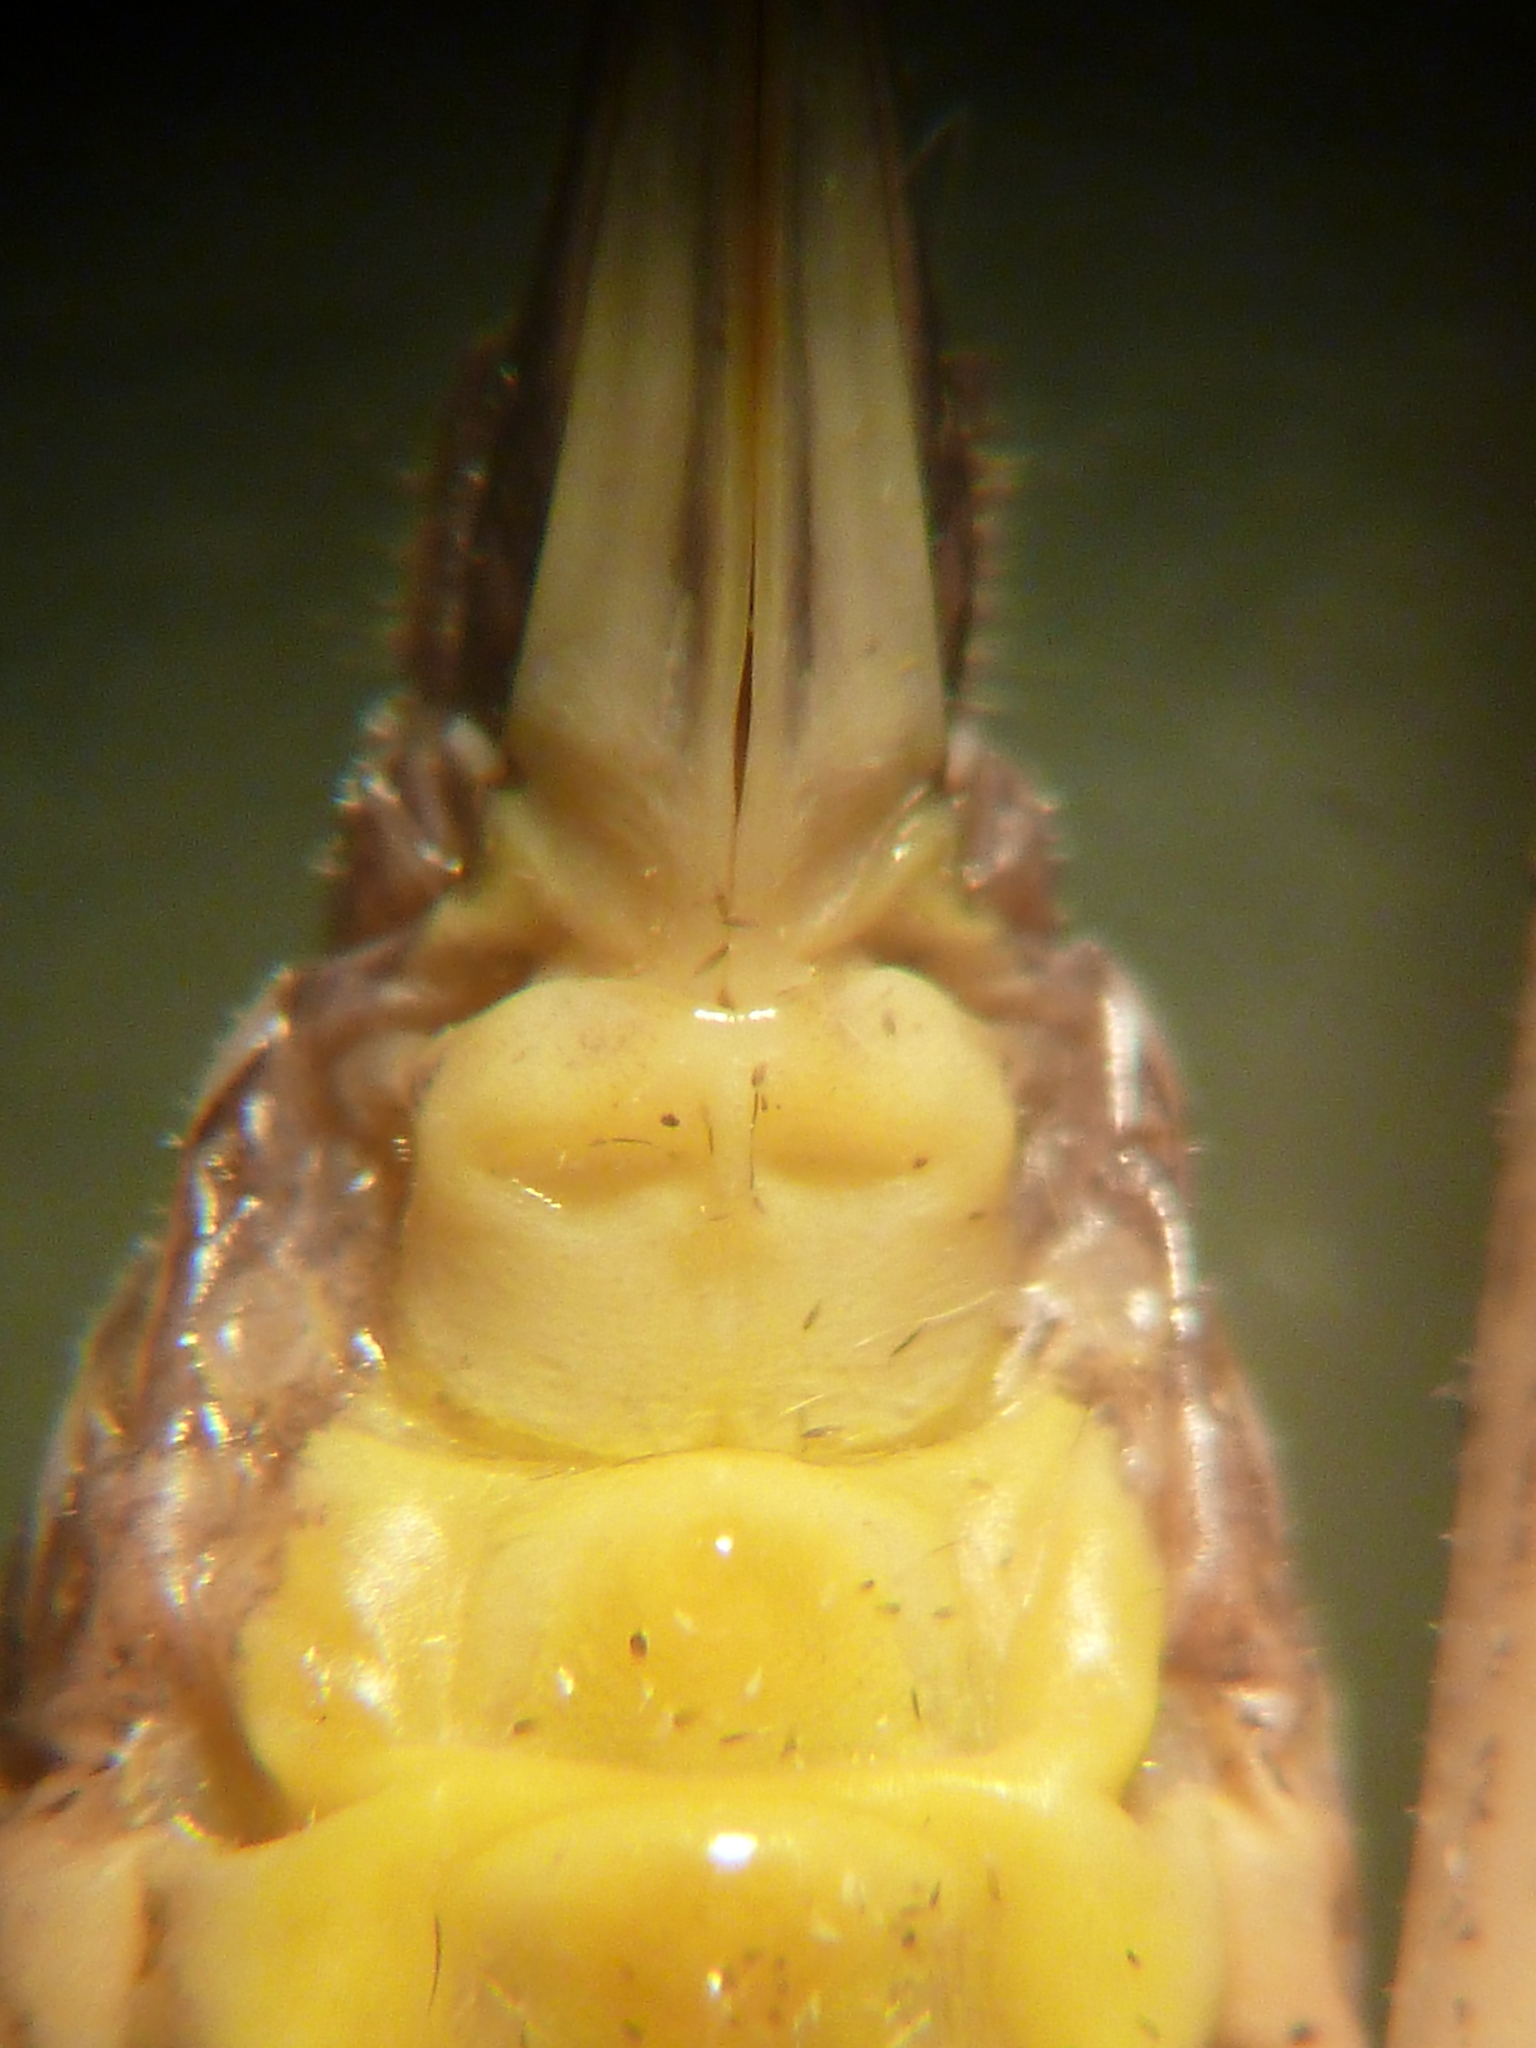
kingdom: Animalia
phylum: Arthropoda
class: Insecta
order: Orthoptera
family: Tettigoniidae
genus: Rhacocleis
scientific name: Rhacocleis buchichii
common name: Lesina bush-cricket
